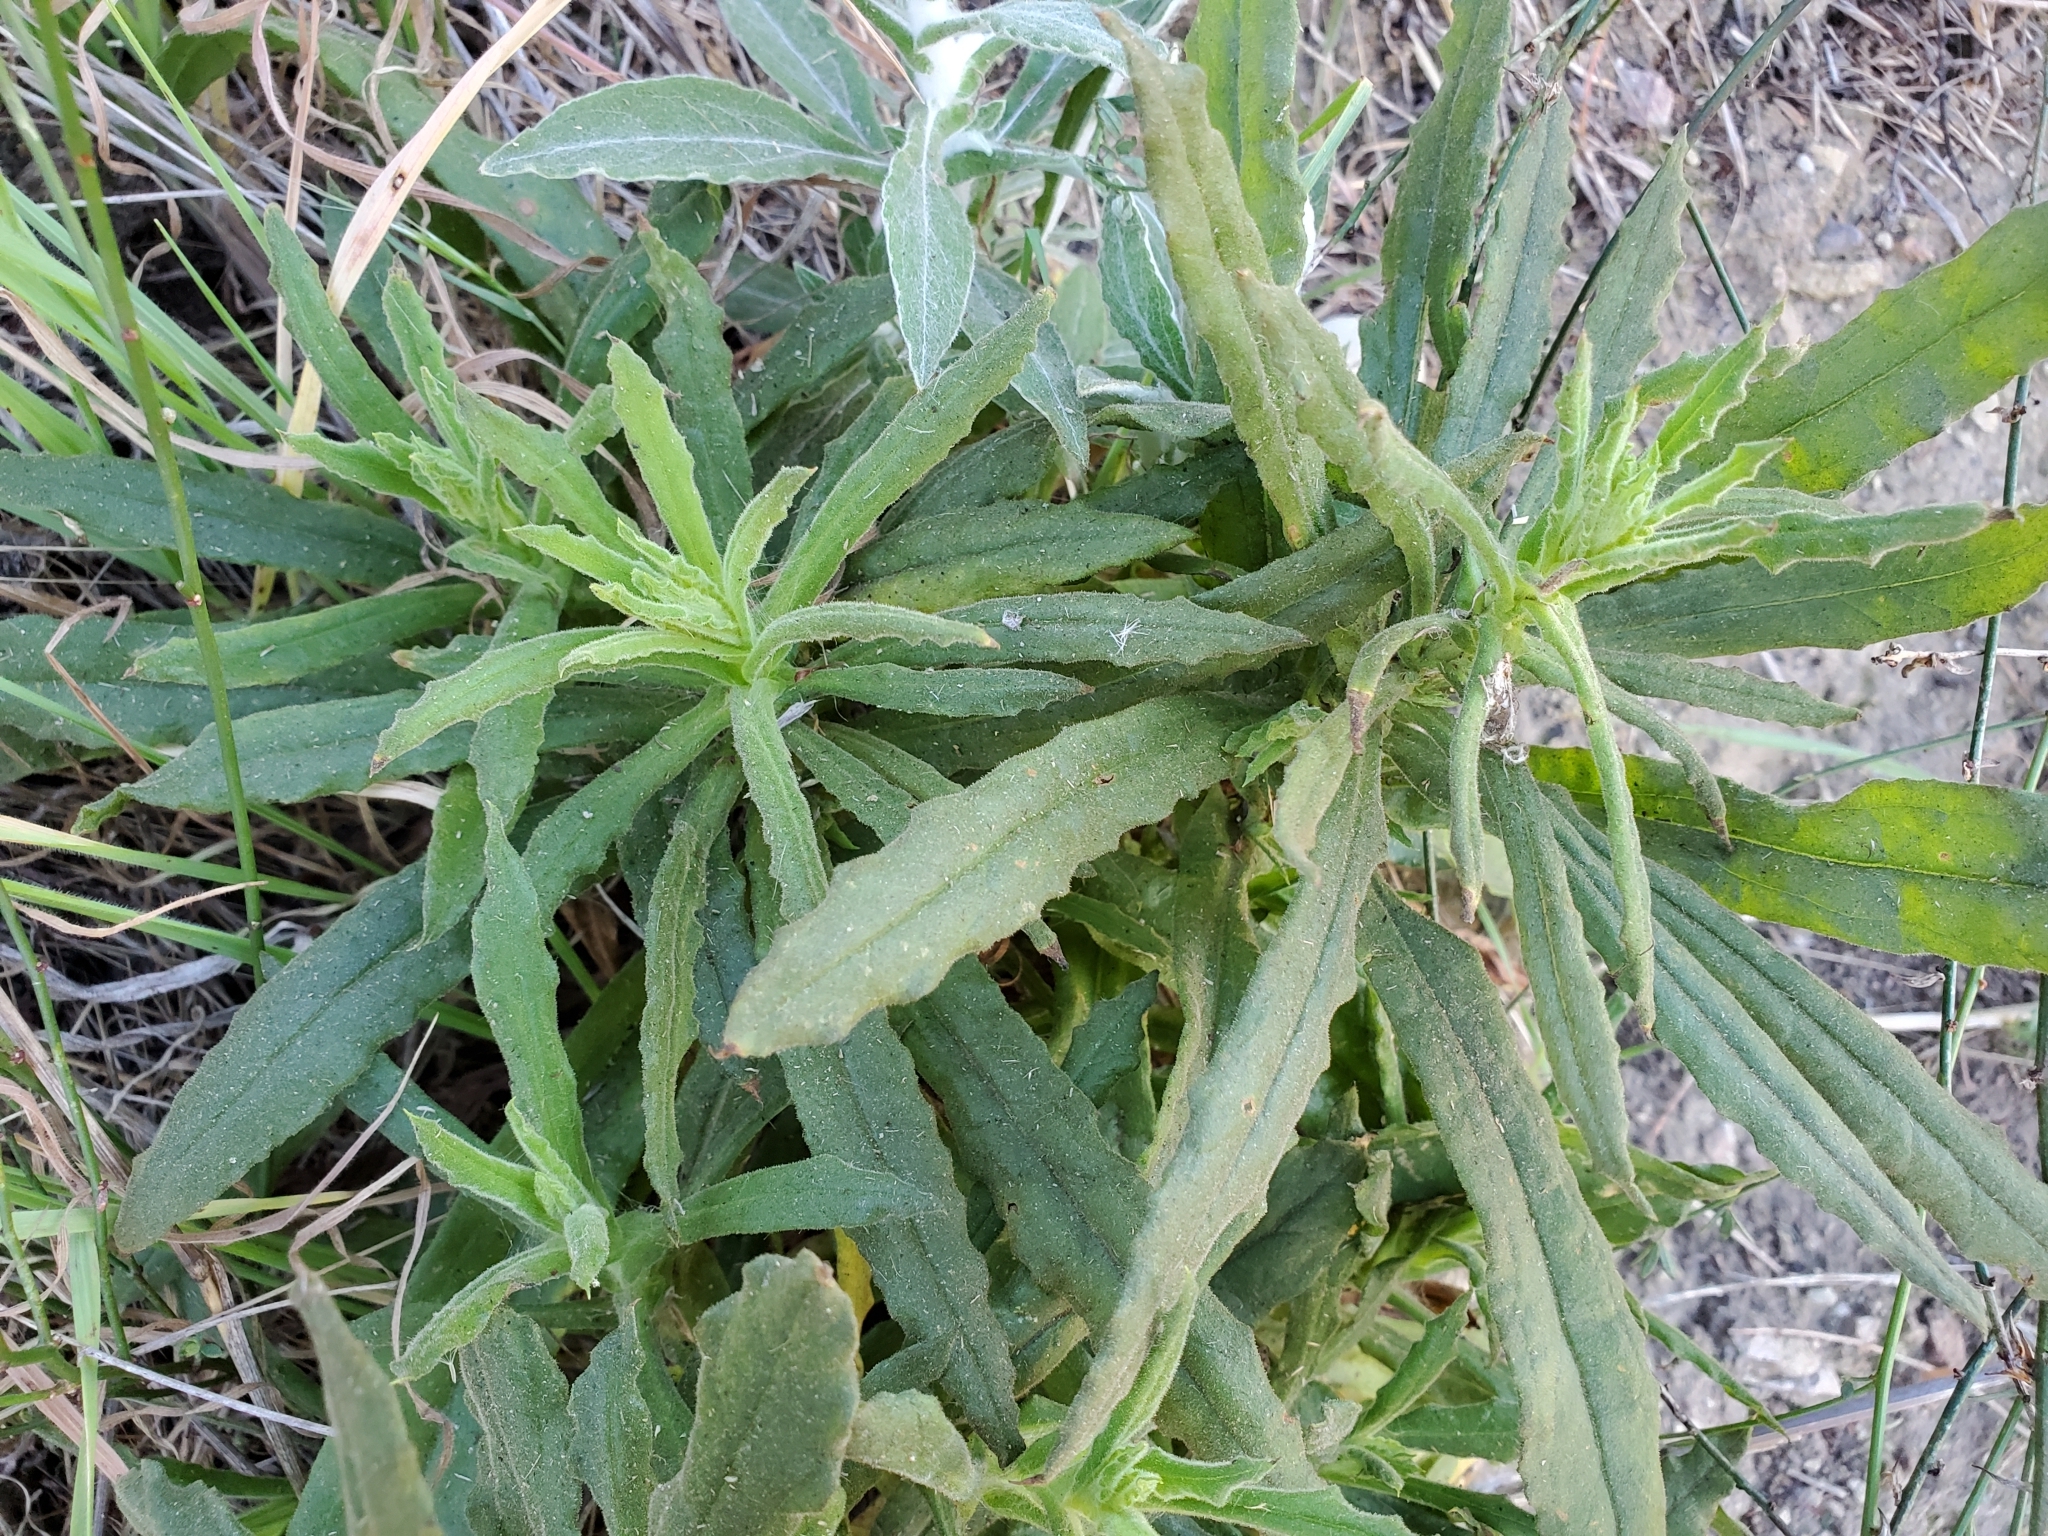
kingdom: Plantae
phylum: Tracheophyta
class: Magnoliopsida
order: Asterales
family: Asteraceae
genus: Pseudognaphalium
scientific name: Pseudognaphalium californicum
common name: California rabbit-tobacco
